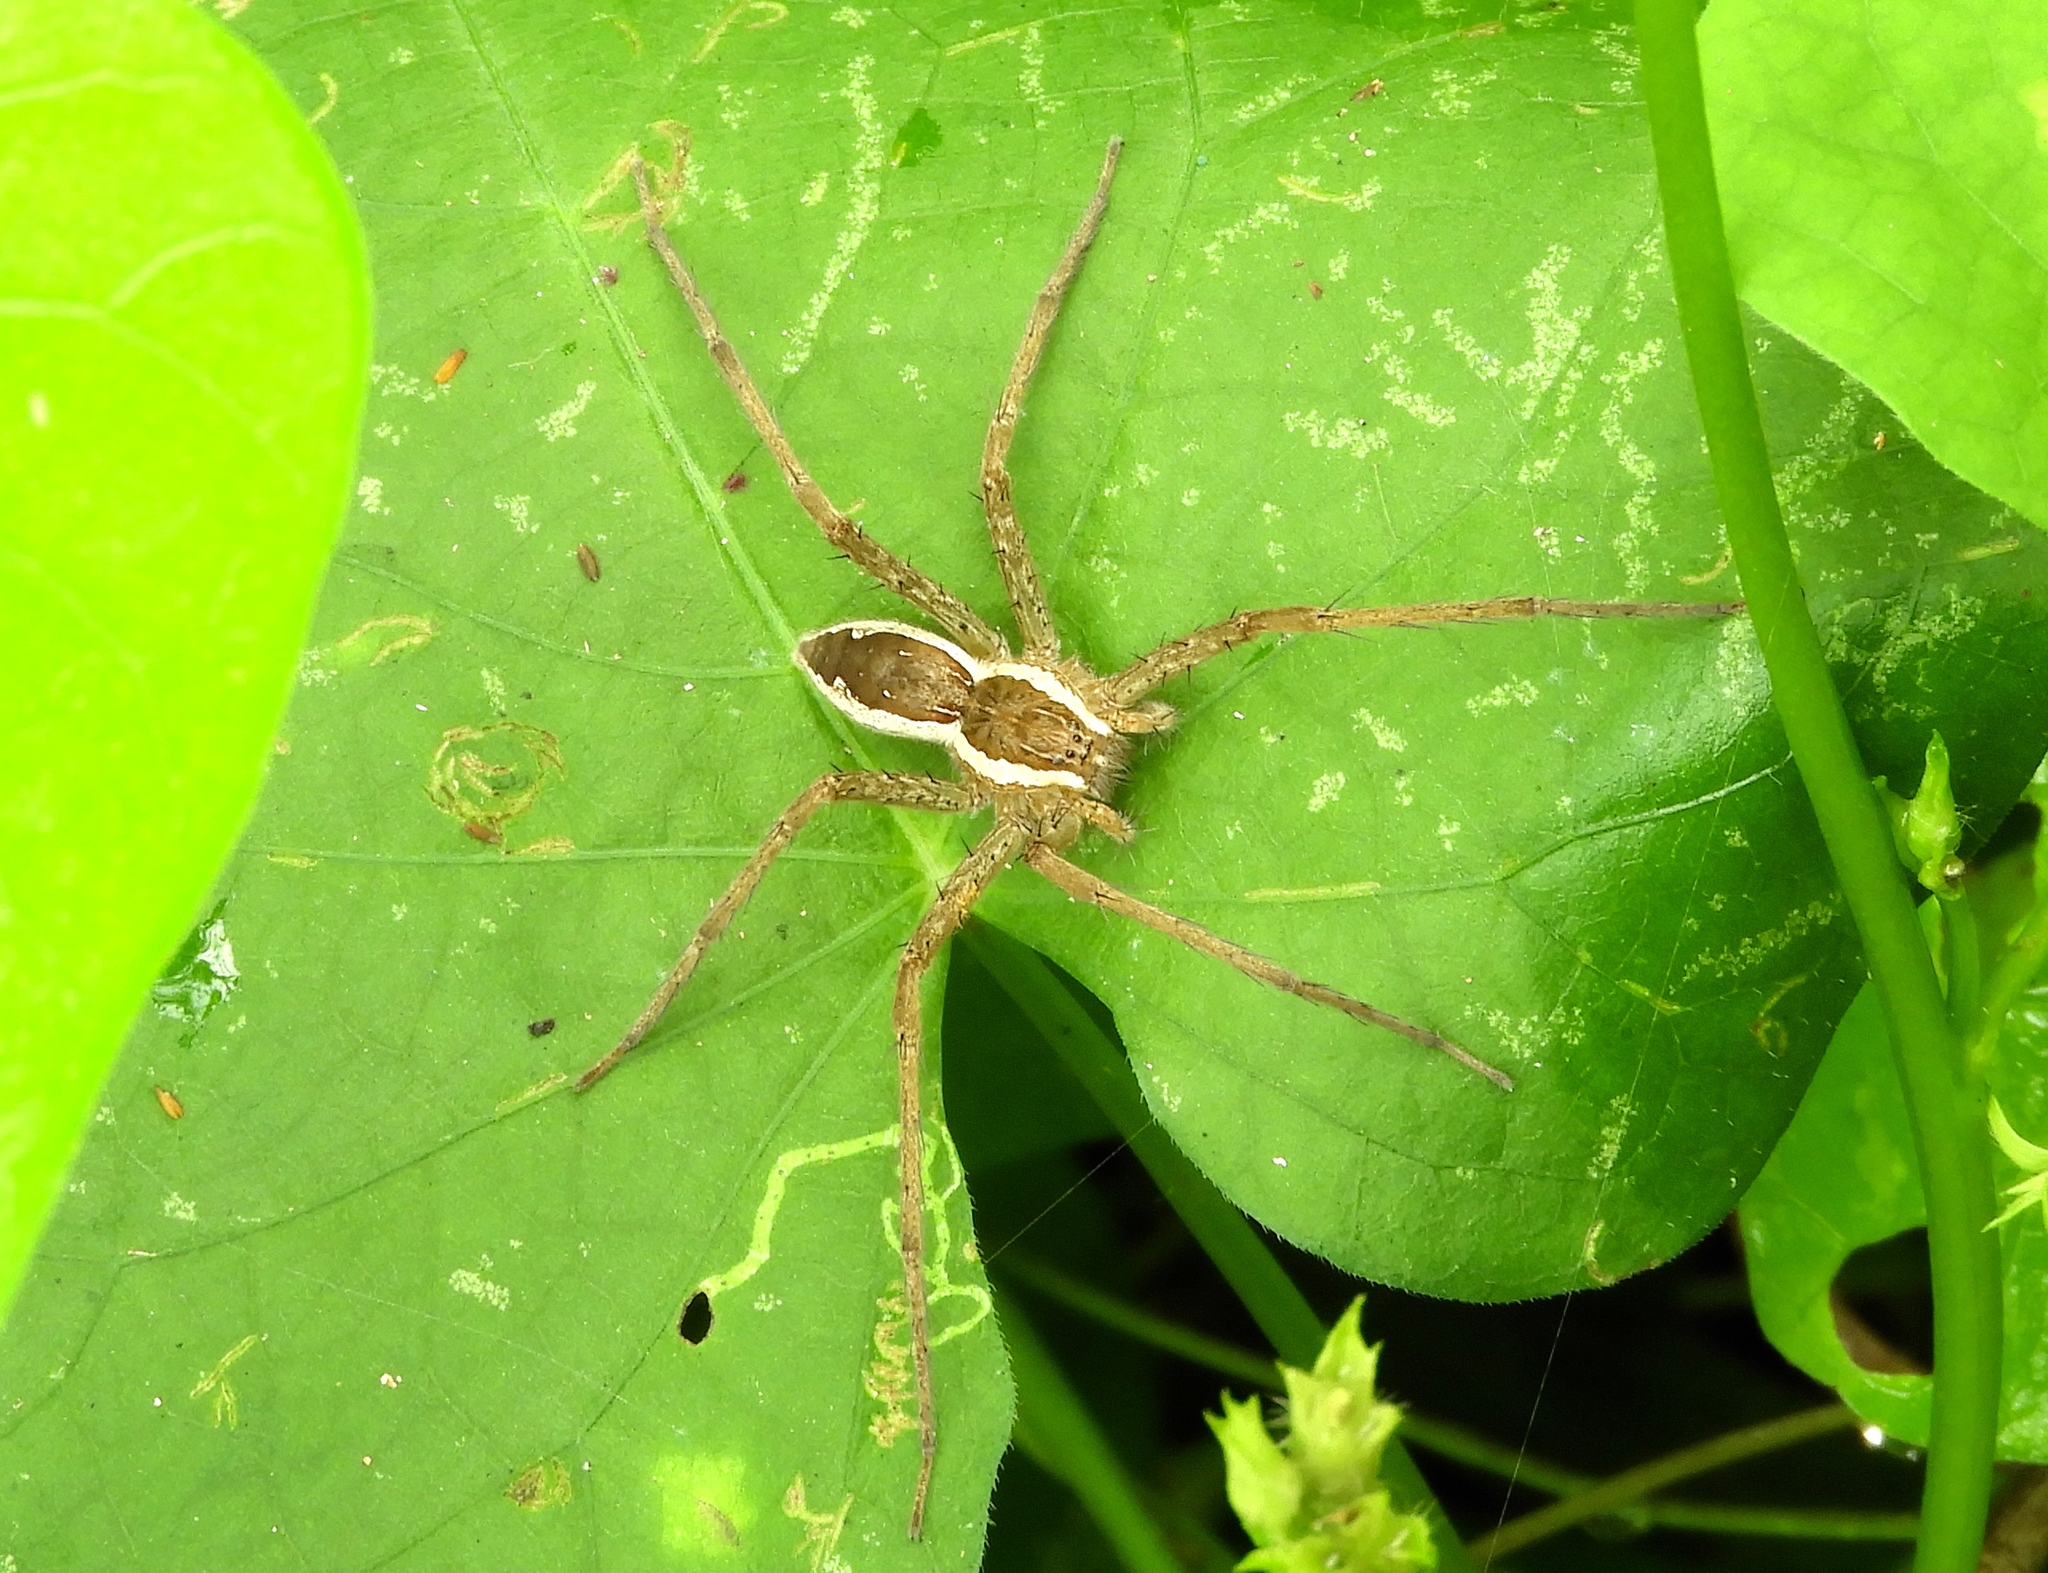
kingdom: Animalia
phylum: Arthropoda
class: Arachnida
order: Araneae
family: Pisauridae
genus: Tinus
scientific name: Tinus
